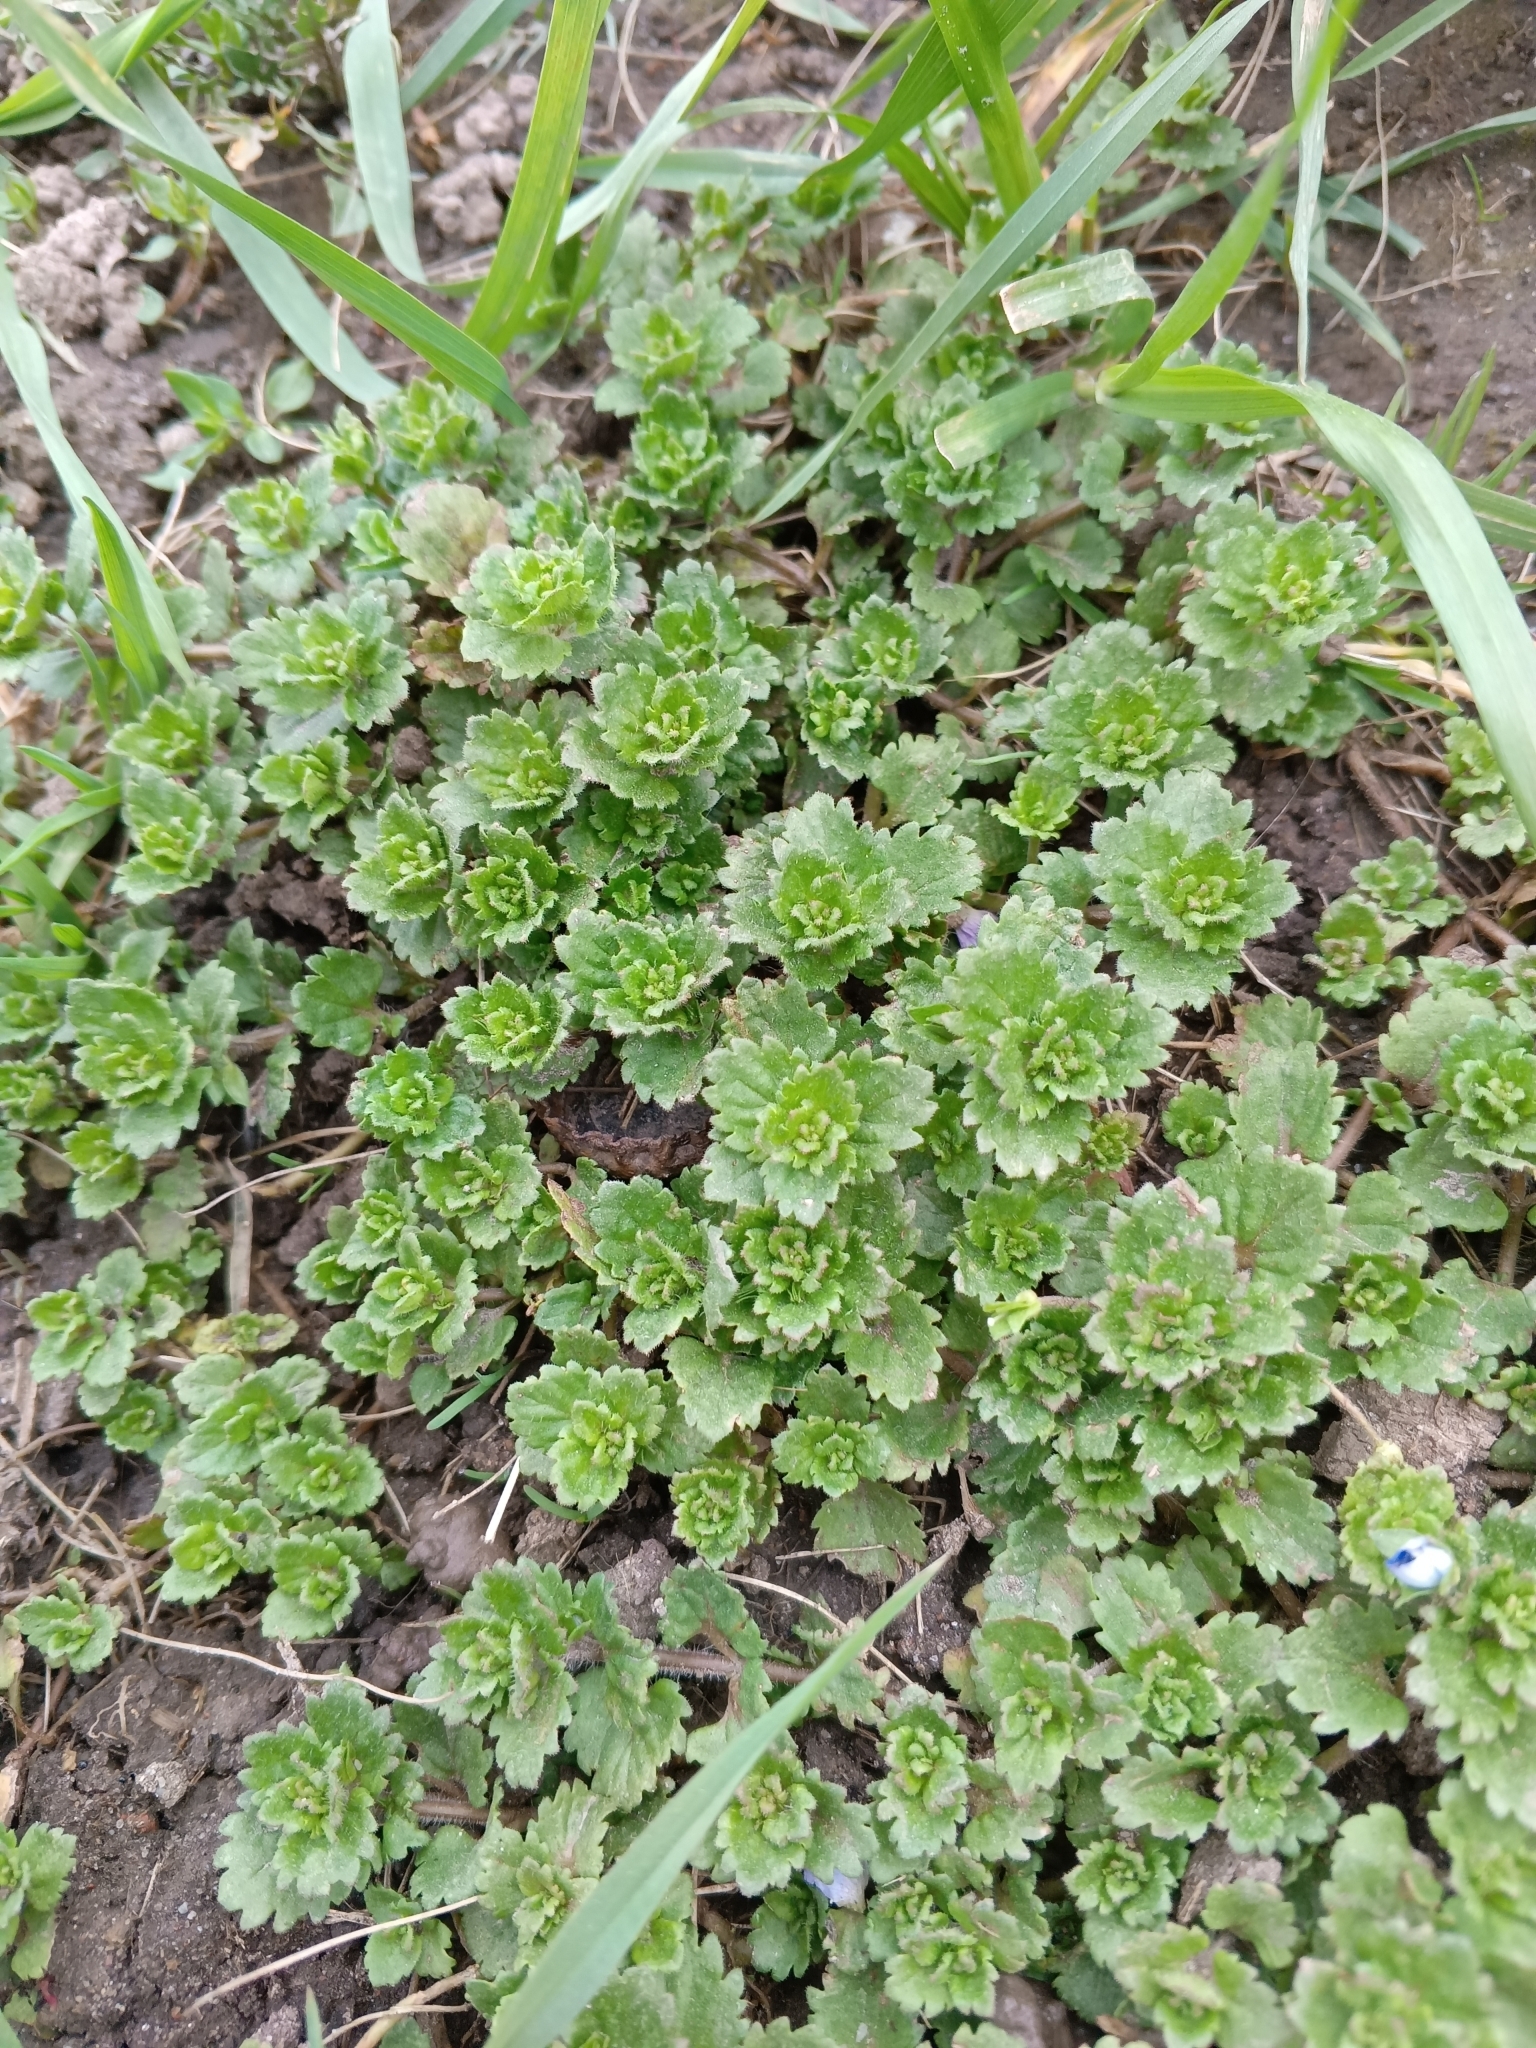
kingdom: Plantae
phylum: Tracheophyta
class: Magnoliopsida
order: Lamiales
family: Plantaginaceae
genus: Veronica
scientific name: Veronica persica
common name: Common field-speedwell
